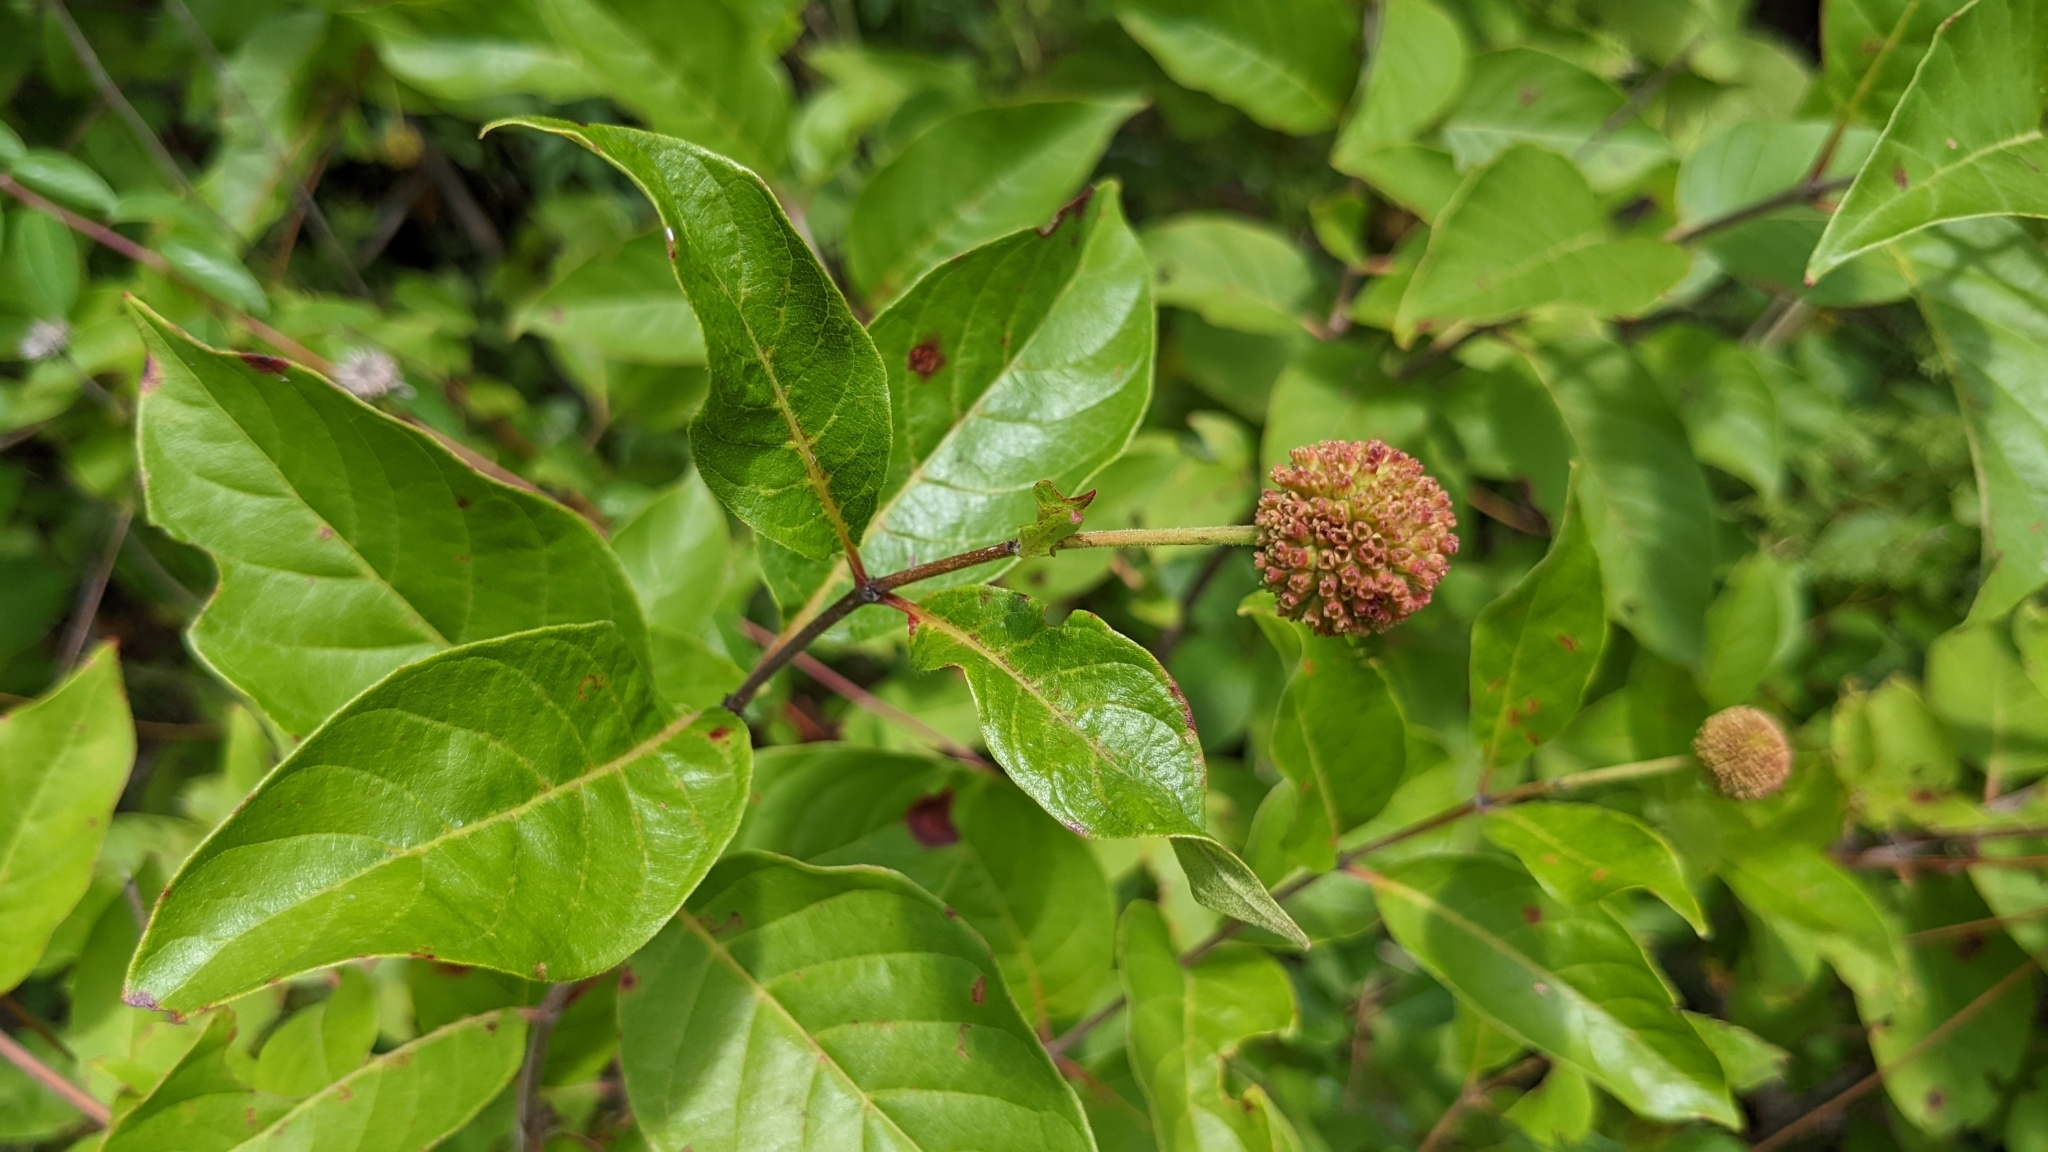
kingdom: Plantae
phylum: Tracheophyta
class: Magnoliopsida
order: Gentianales
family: Rubiaceae
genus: Cephalanthus
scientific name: Cephalanthus occidentalis
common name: Button-willow
